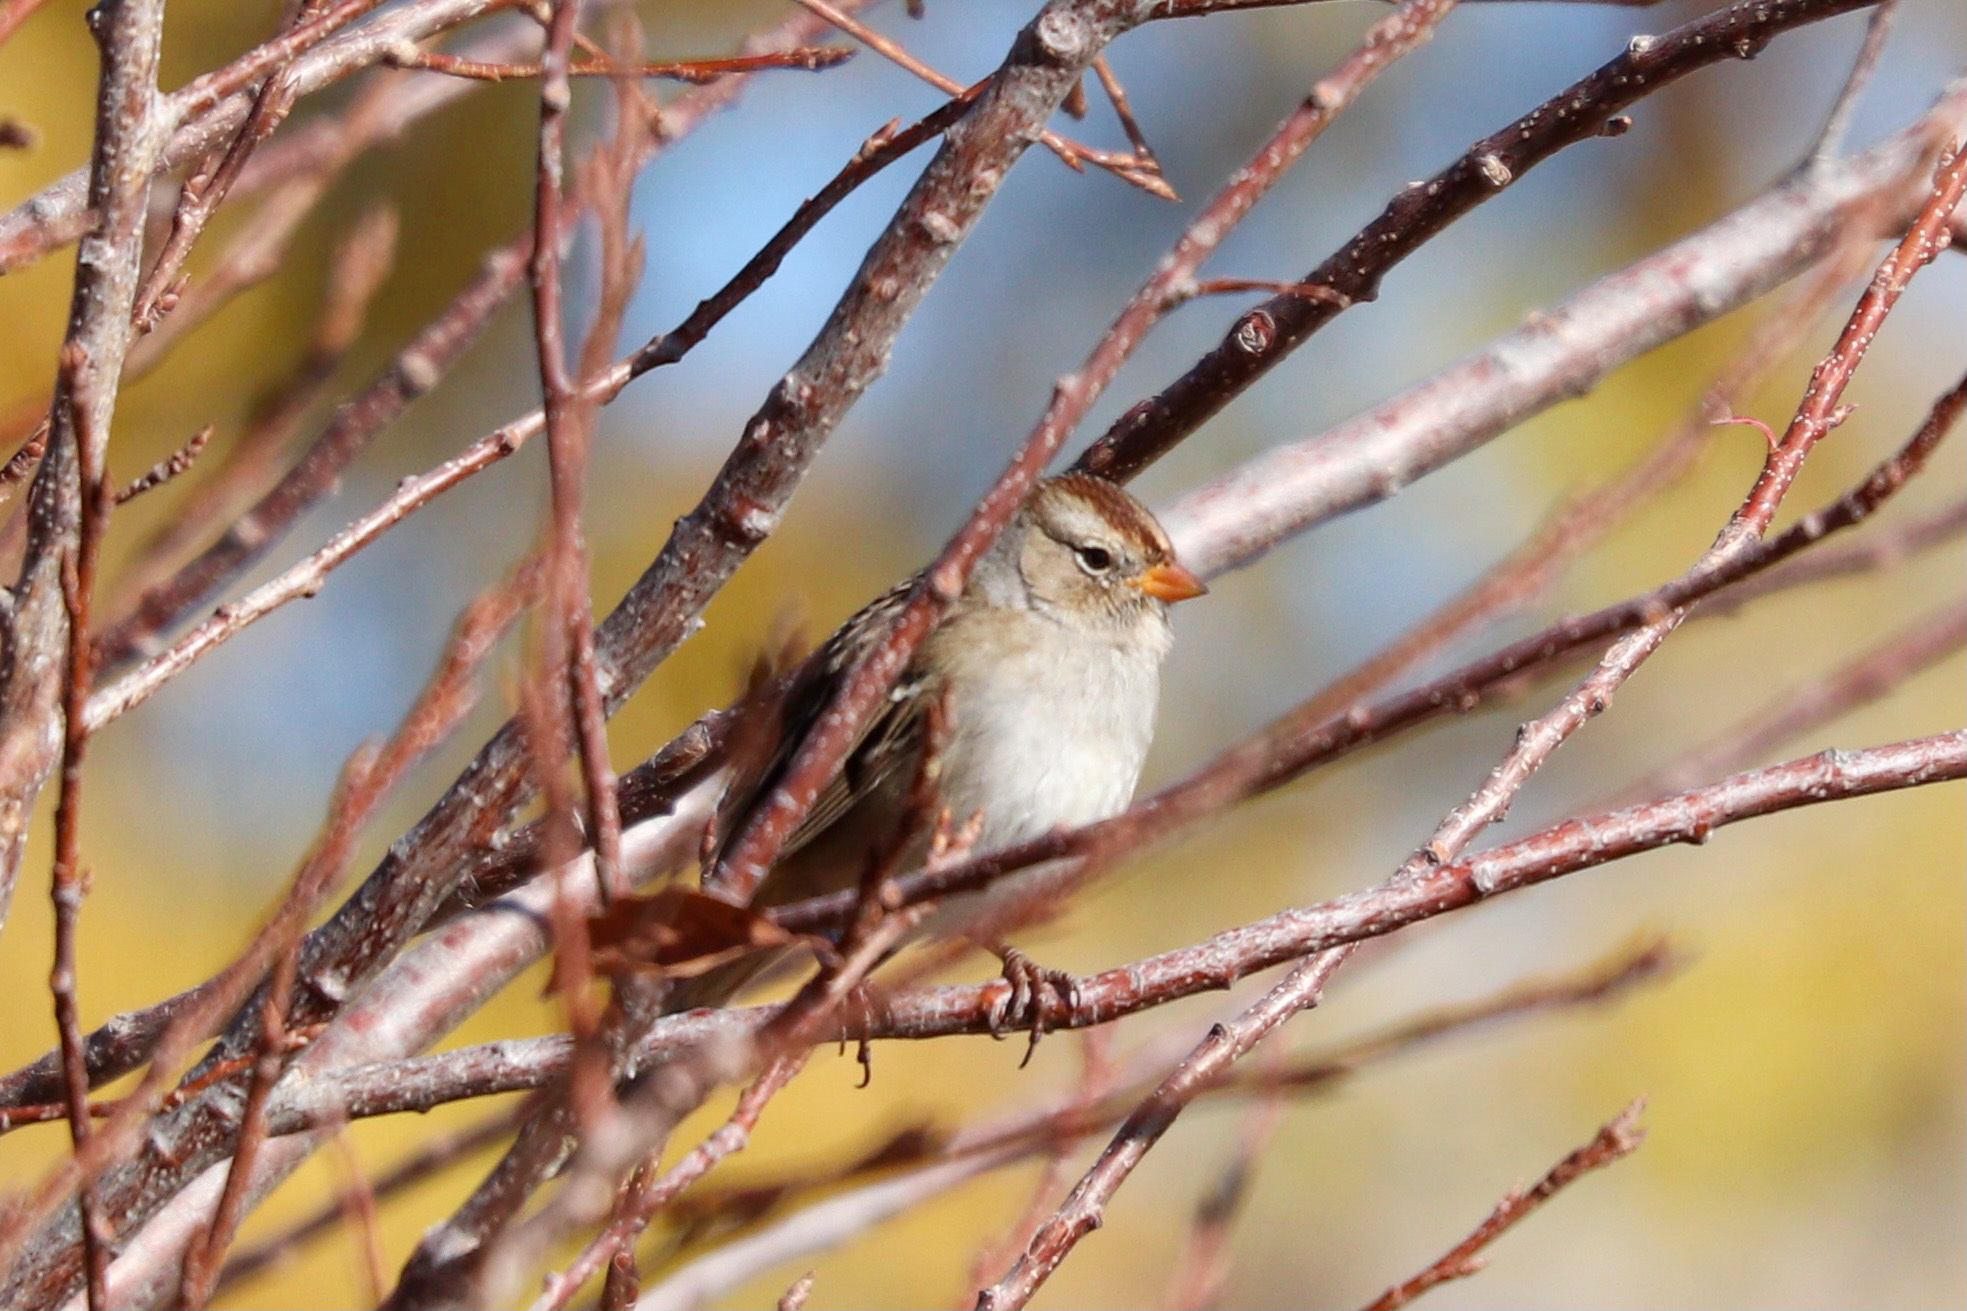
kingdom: Animalia
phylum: Chordata
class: Aves
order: Passeriformes
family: Passerellidae
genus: Zonotrichia
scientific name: Zonotrichia leucophrys
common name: White-crowned sparrow
